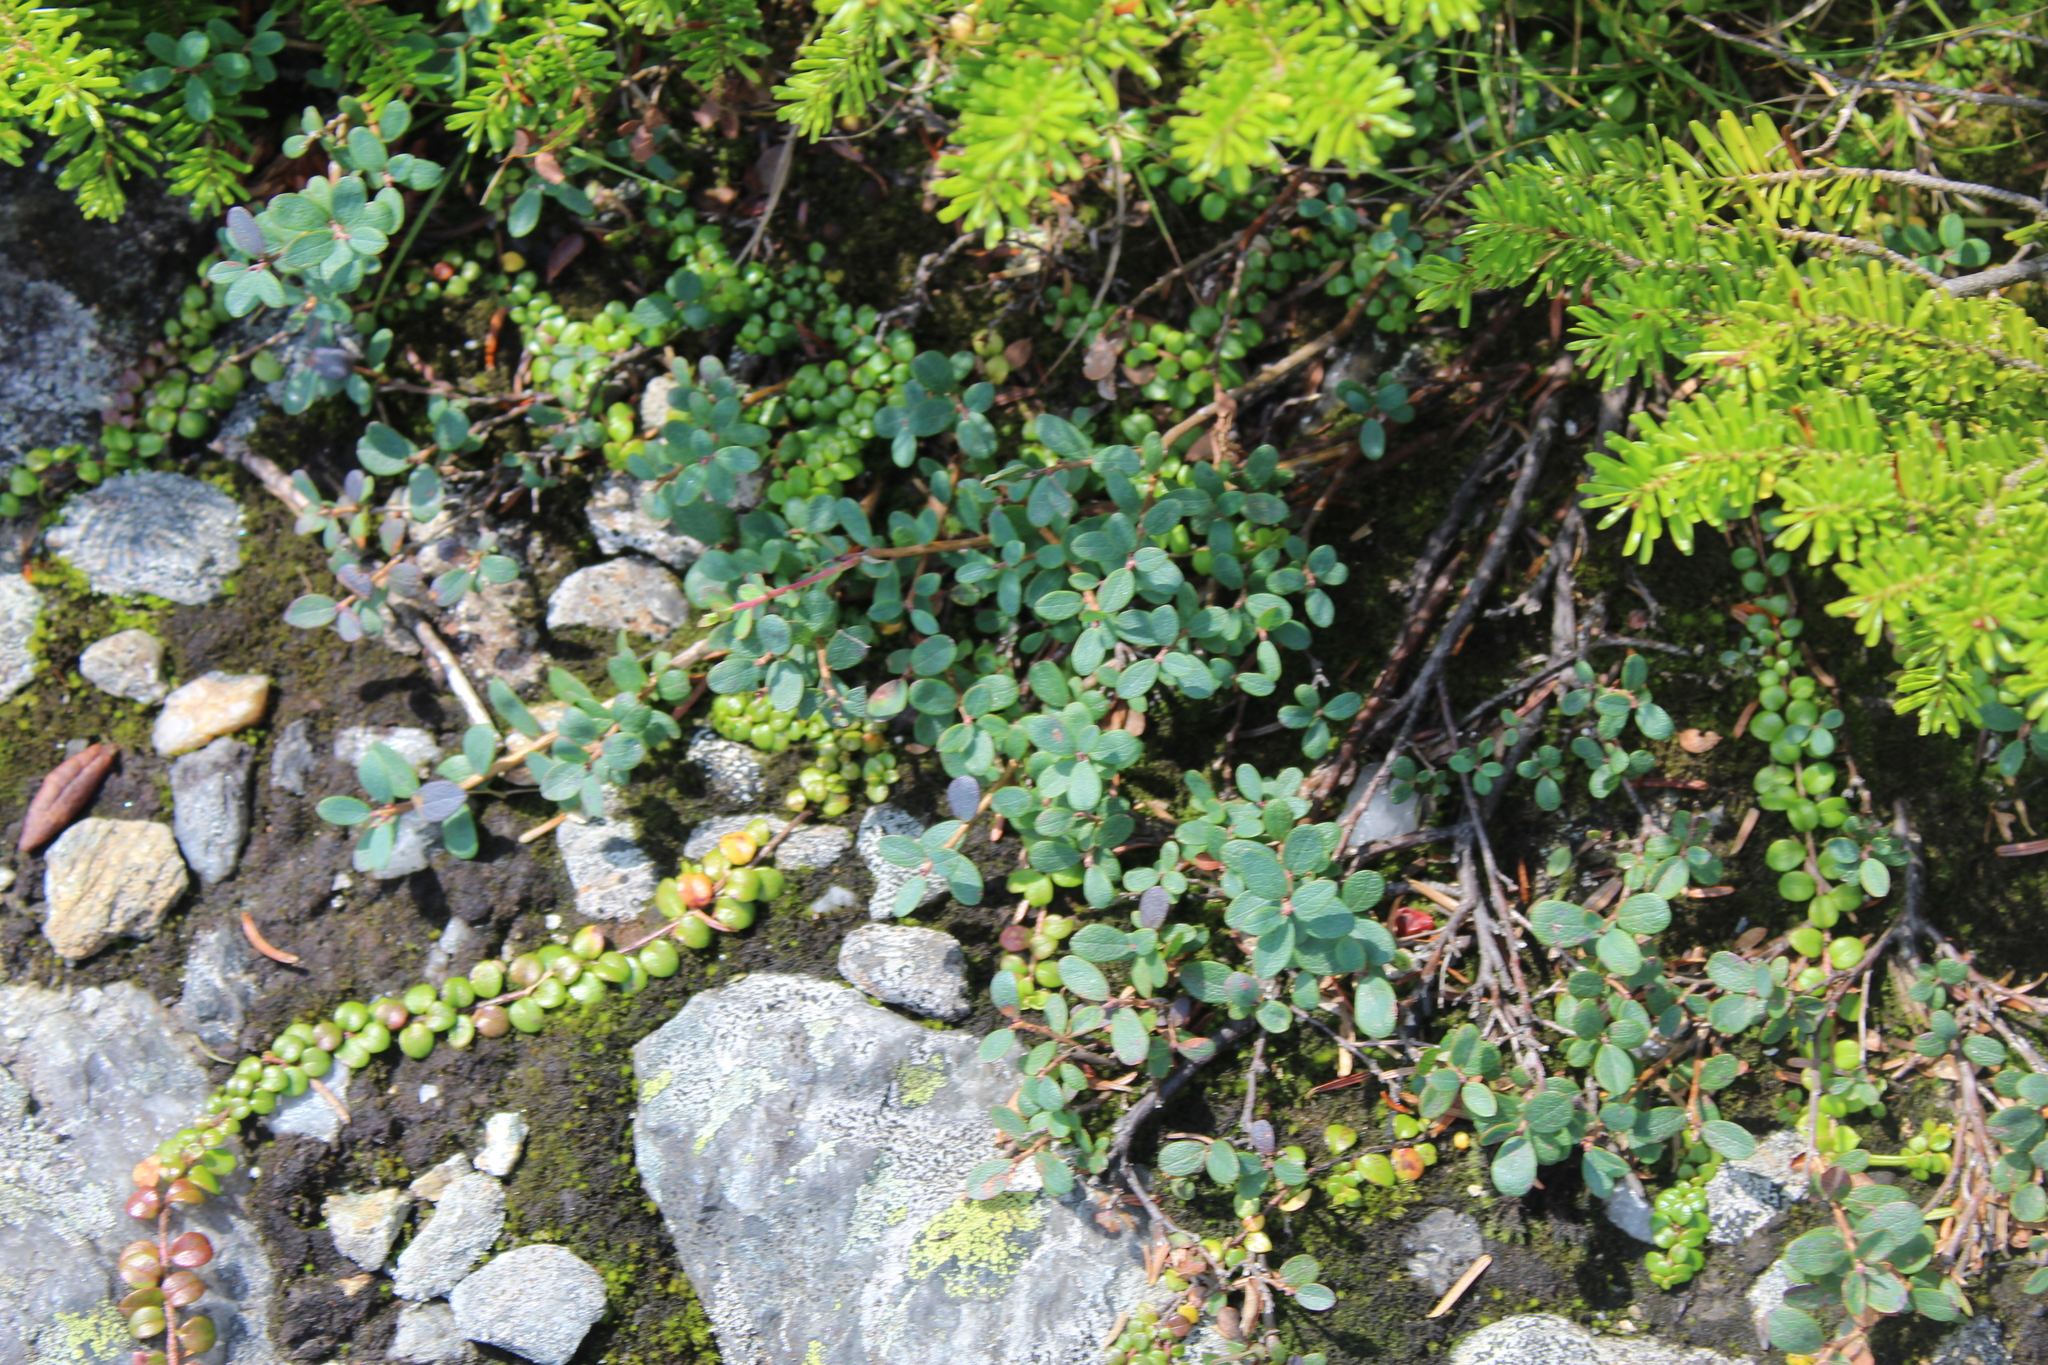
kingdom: Plantae
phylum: Tracheophyta
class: Magnoliopsida
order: Ericales
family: Ericaceae
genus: Vaccinium
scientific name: Vaccinium uliginosum
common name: Bog bilberry
